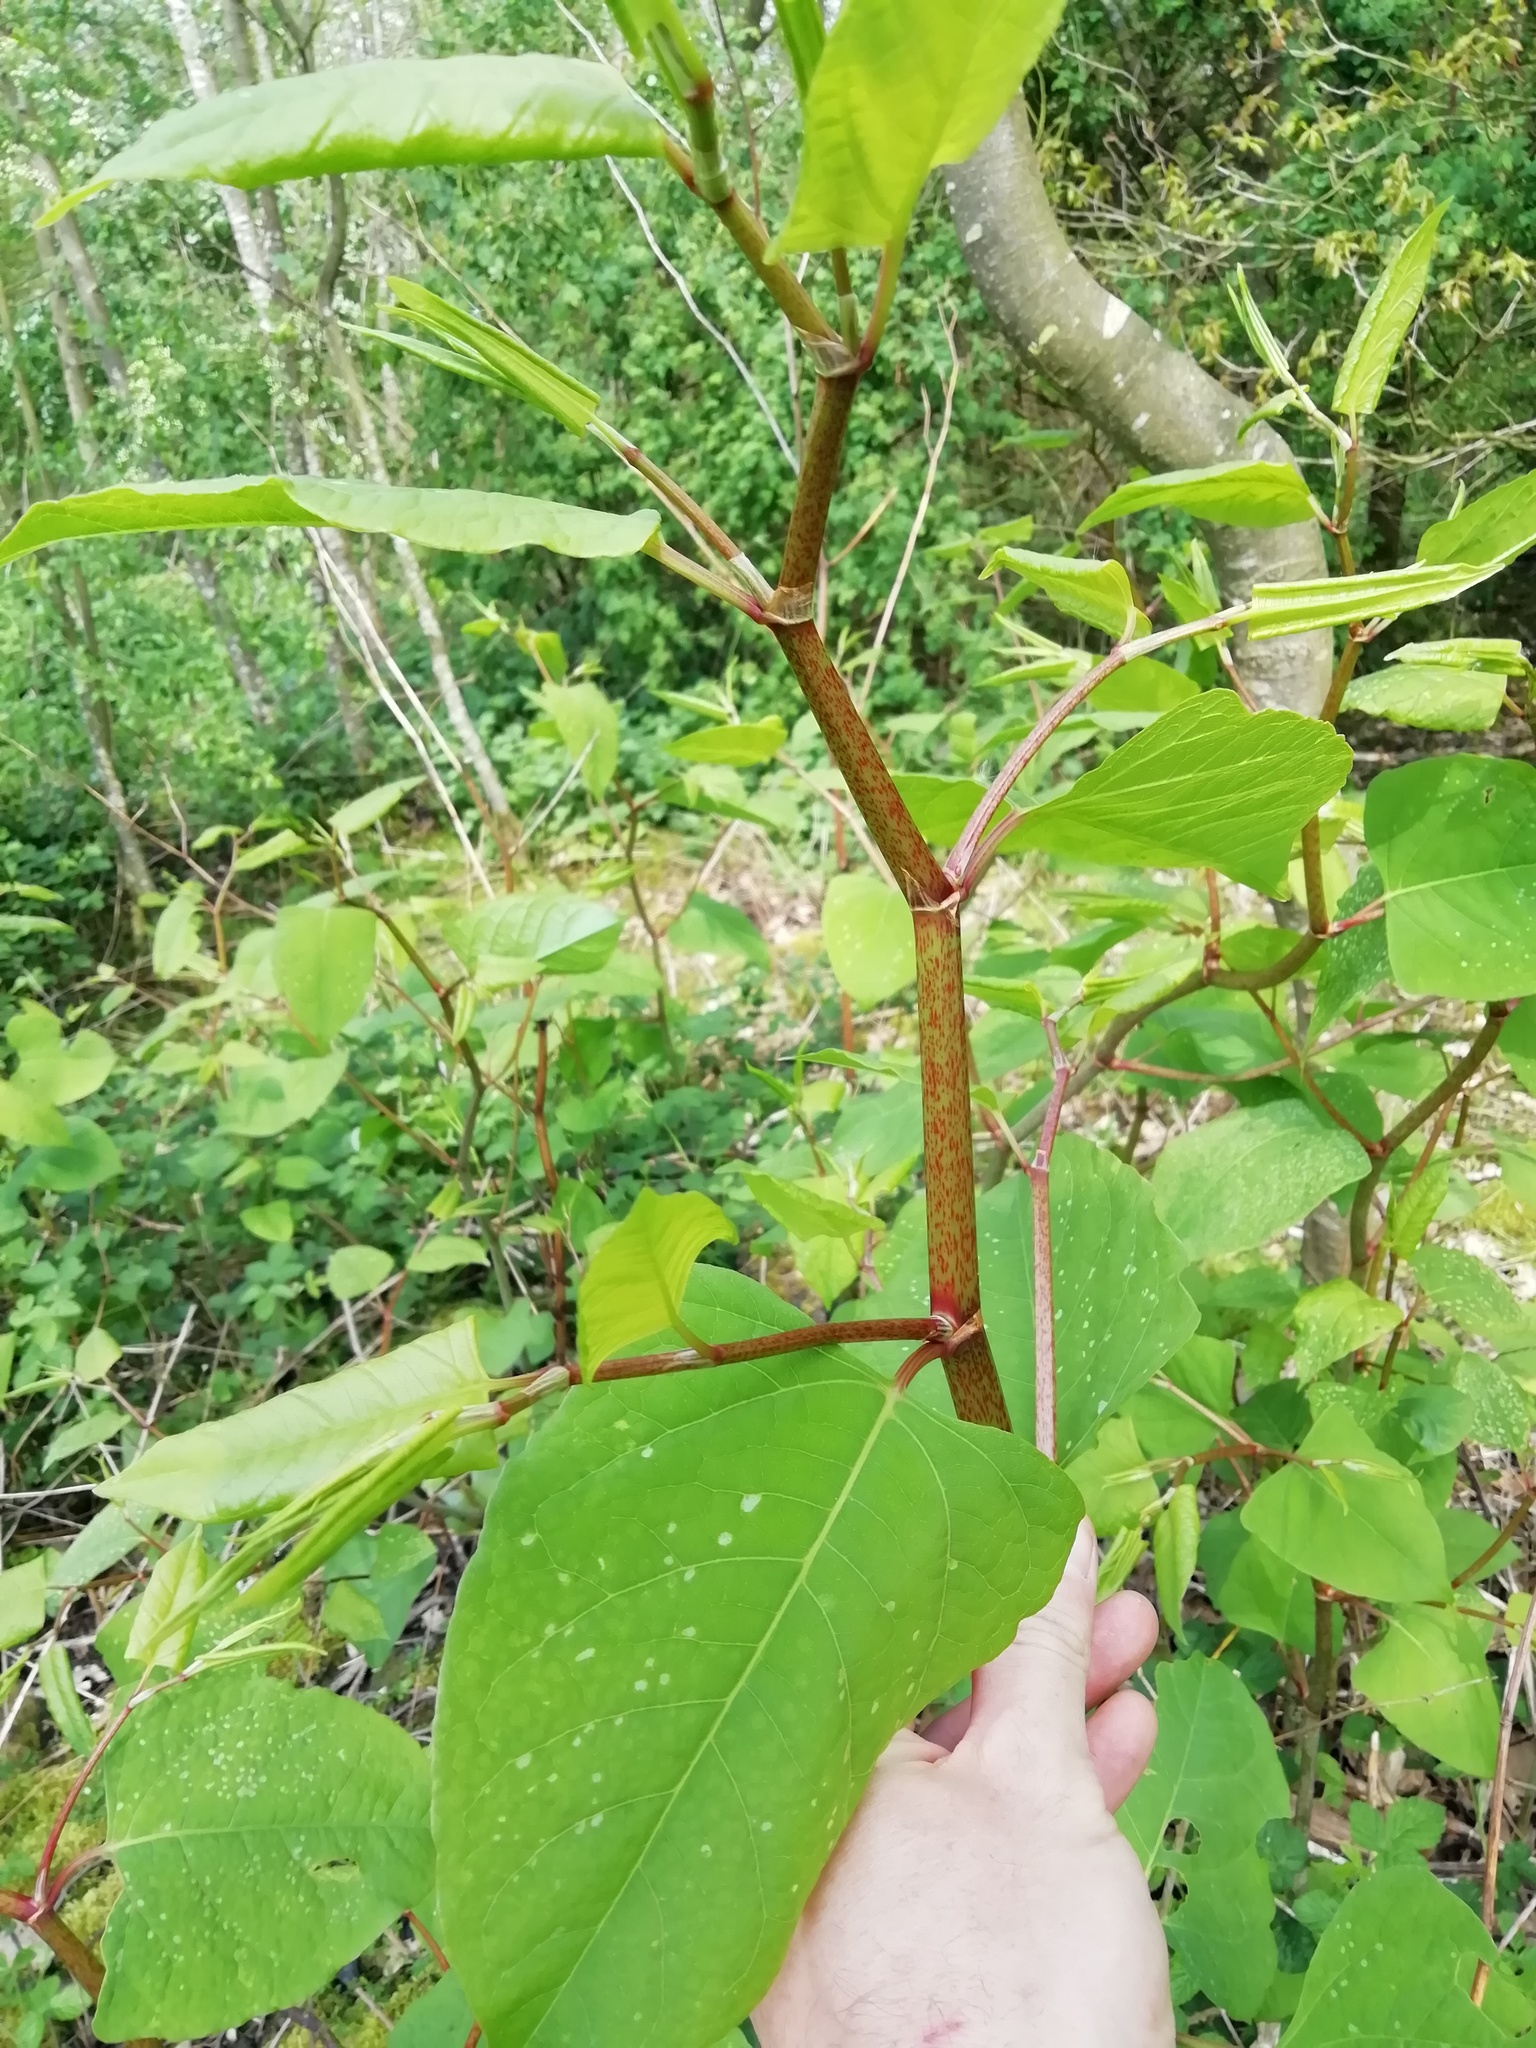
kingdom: Plantae
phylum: Tracheophyta
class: Magnoliopsida
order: Caryophyllales
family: Polygonaceae
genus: Reynoutria
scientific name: Reynoutria japonica
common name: Japanese knotweed
